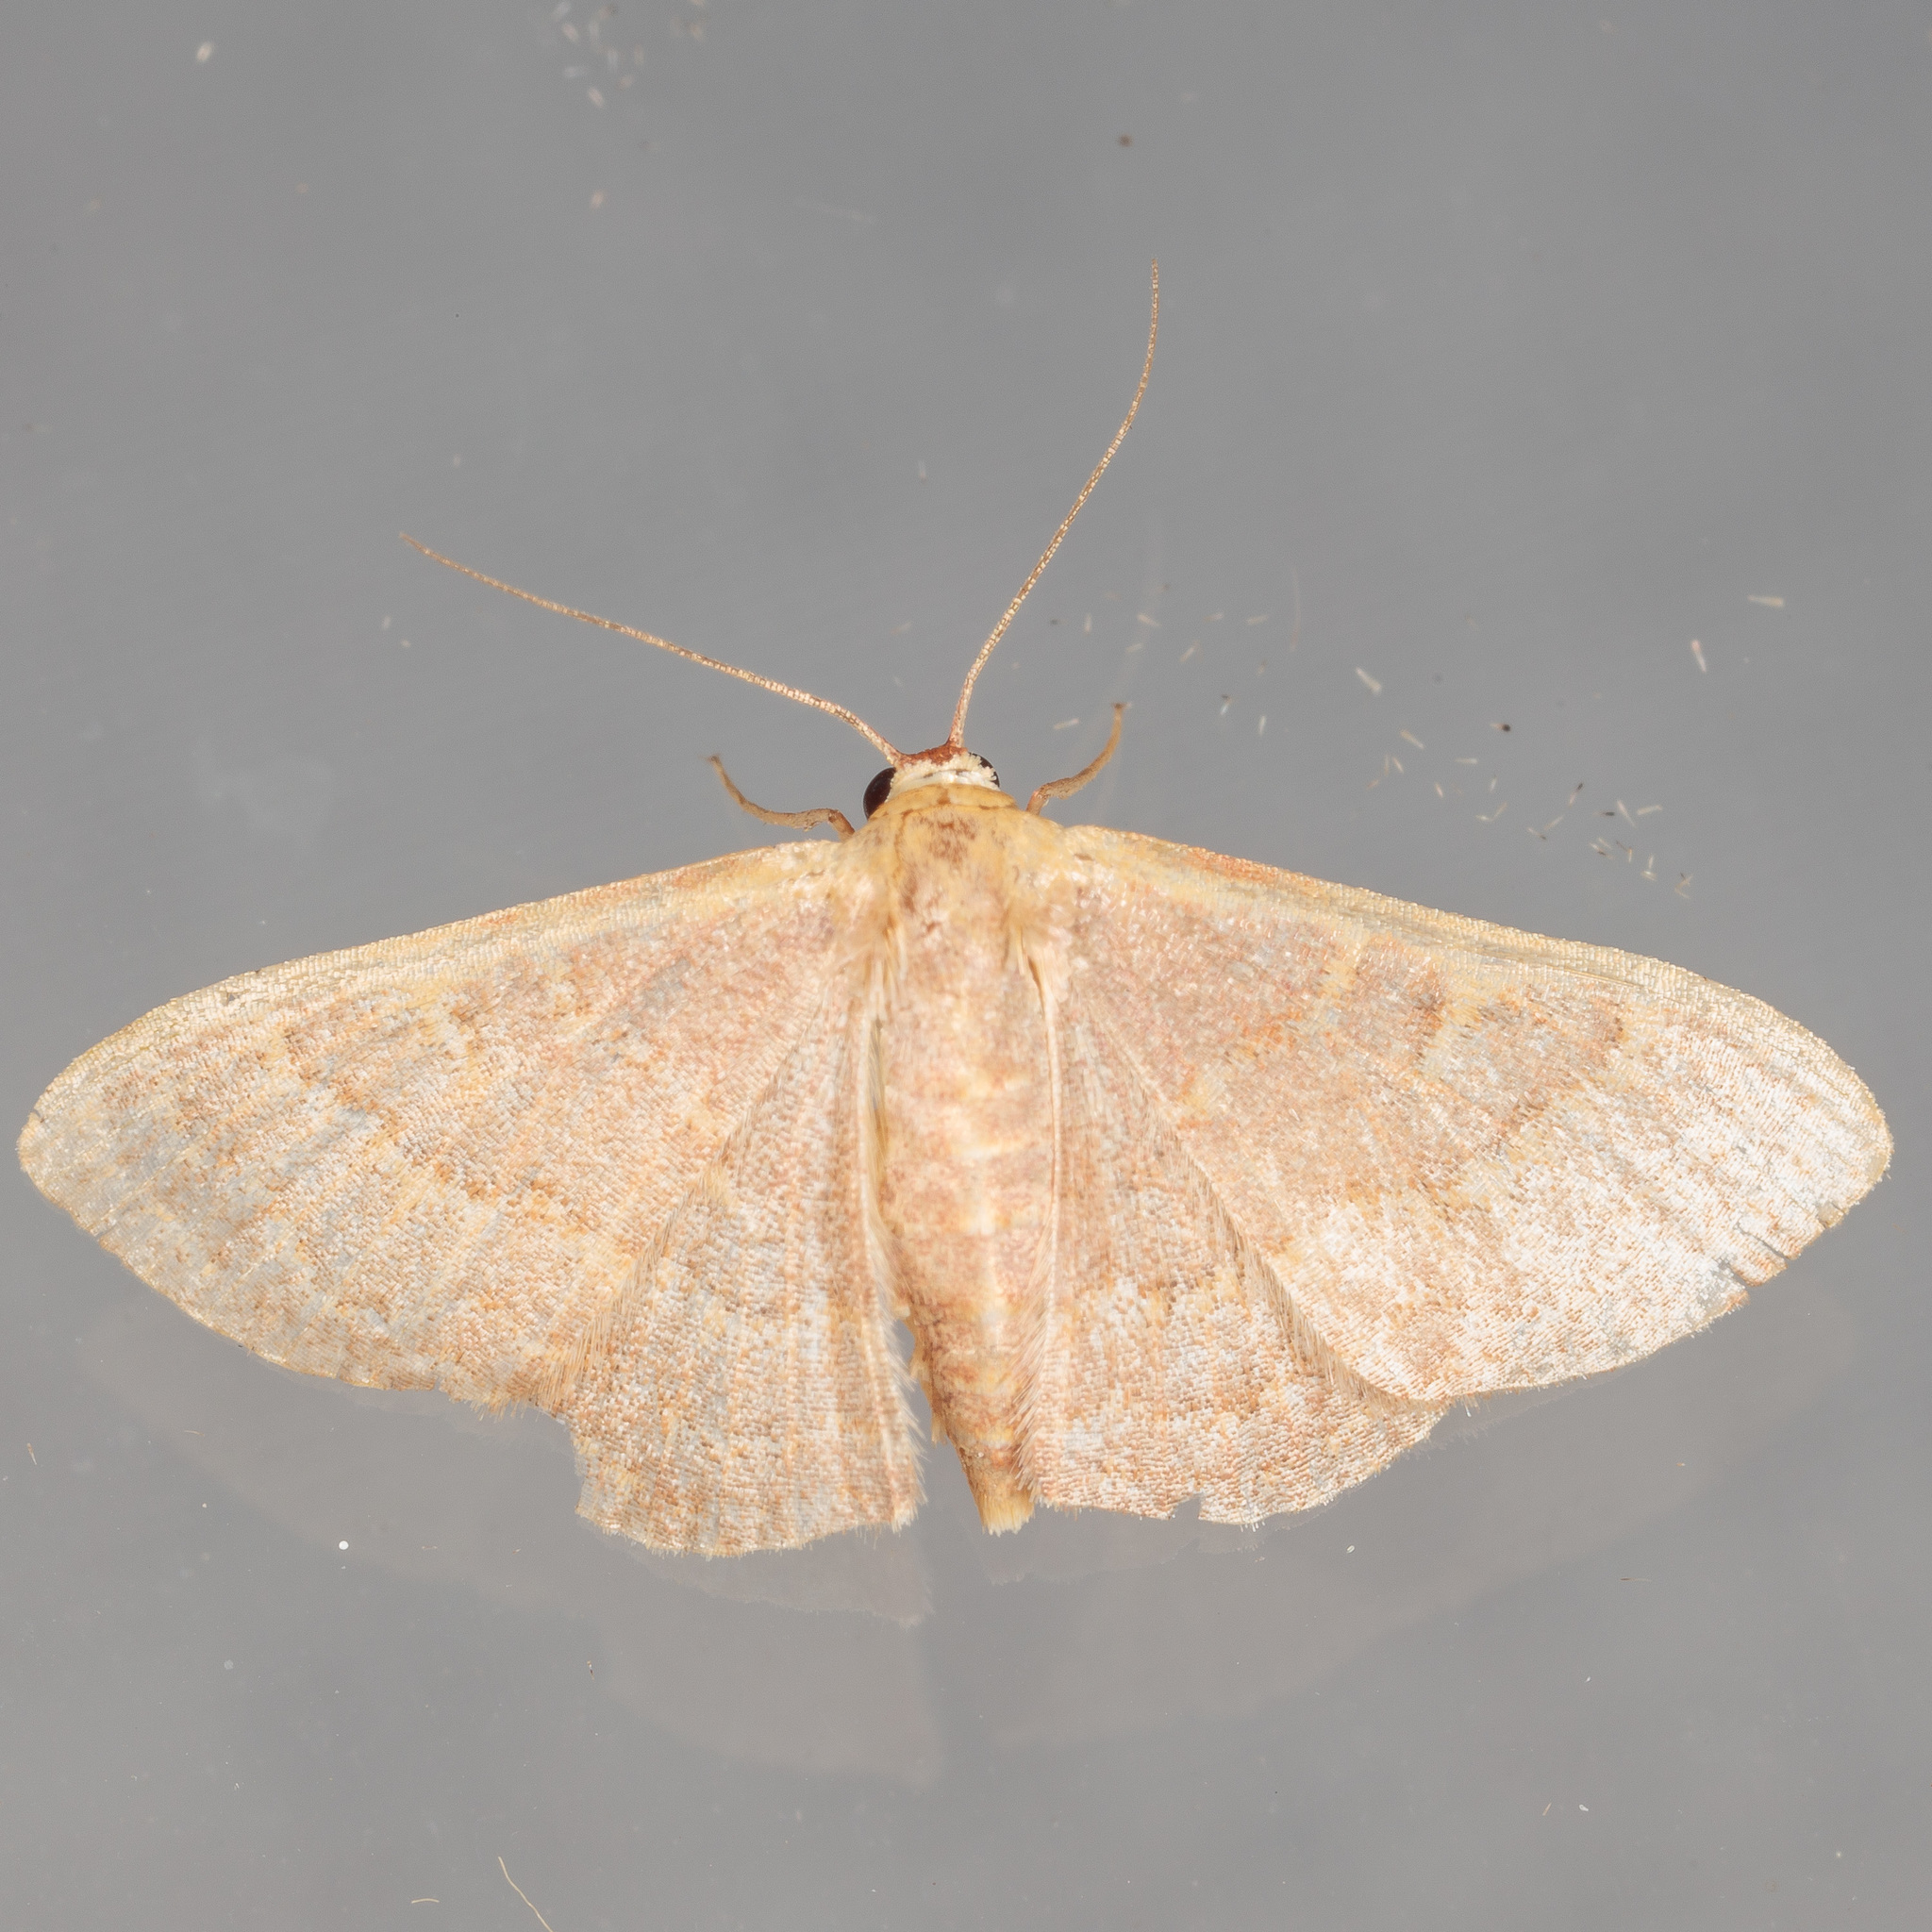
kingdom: Animalia
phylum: Arthropoda
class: Insecta
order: Lepidoptera
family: Geometridae
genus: Leptostales
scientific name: Leptostales pannaria
